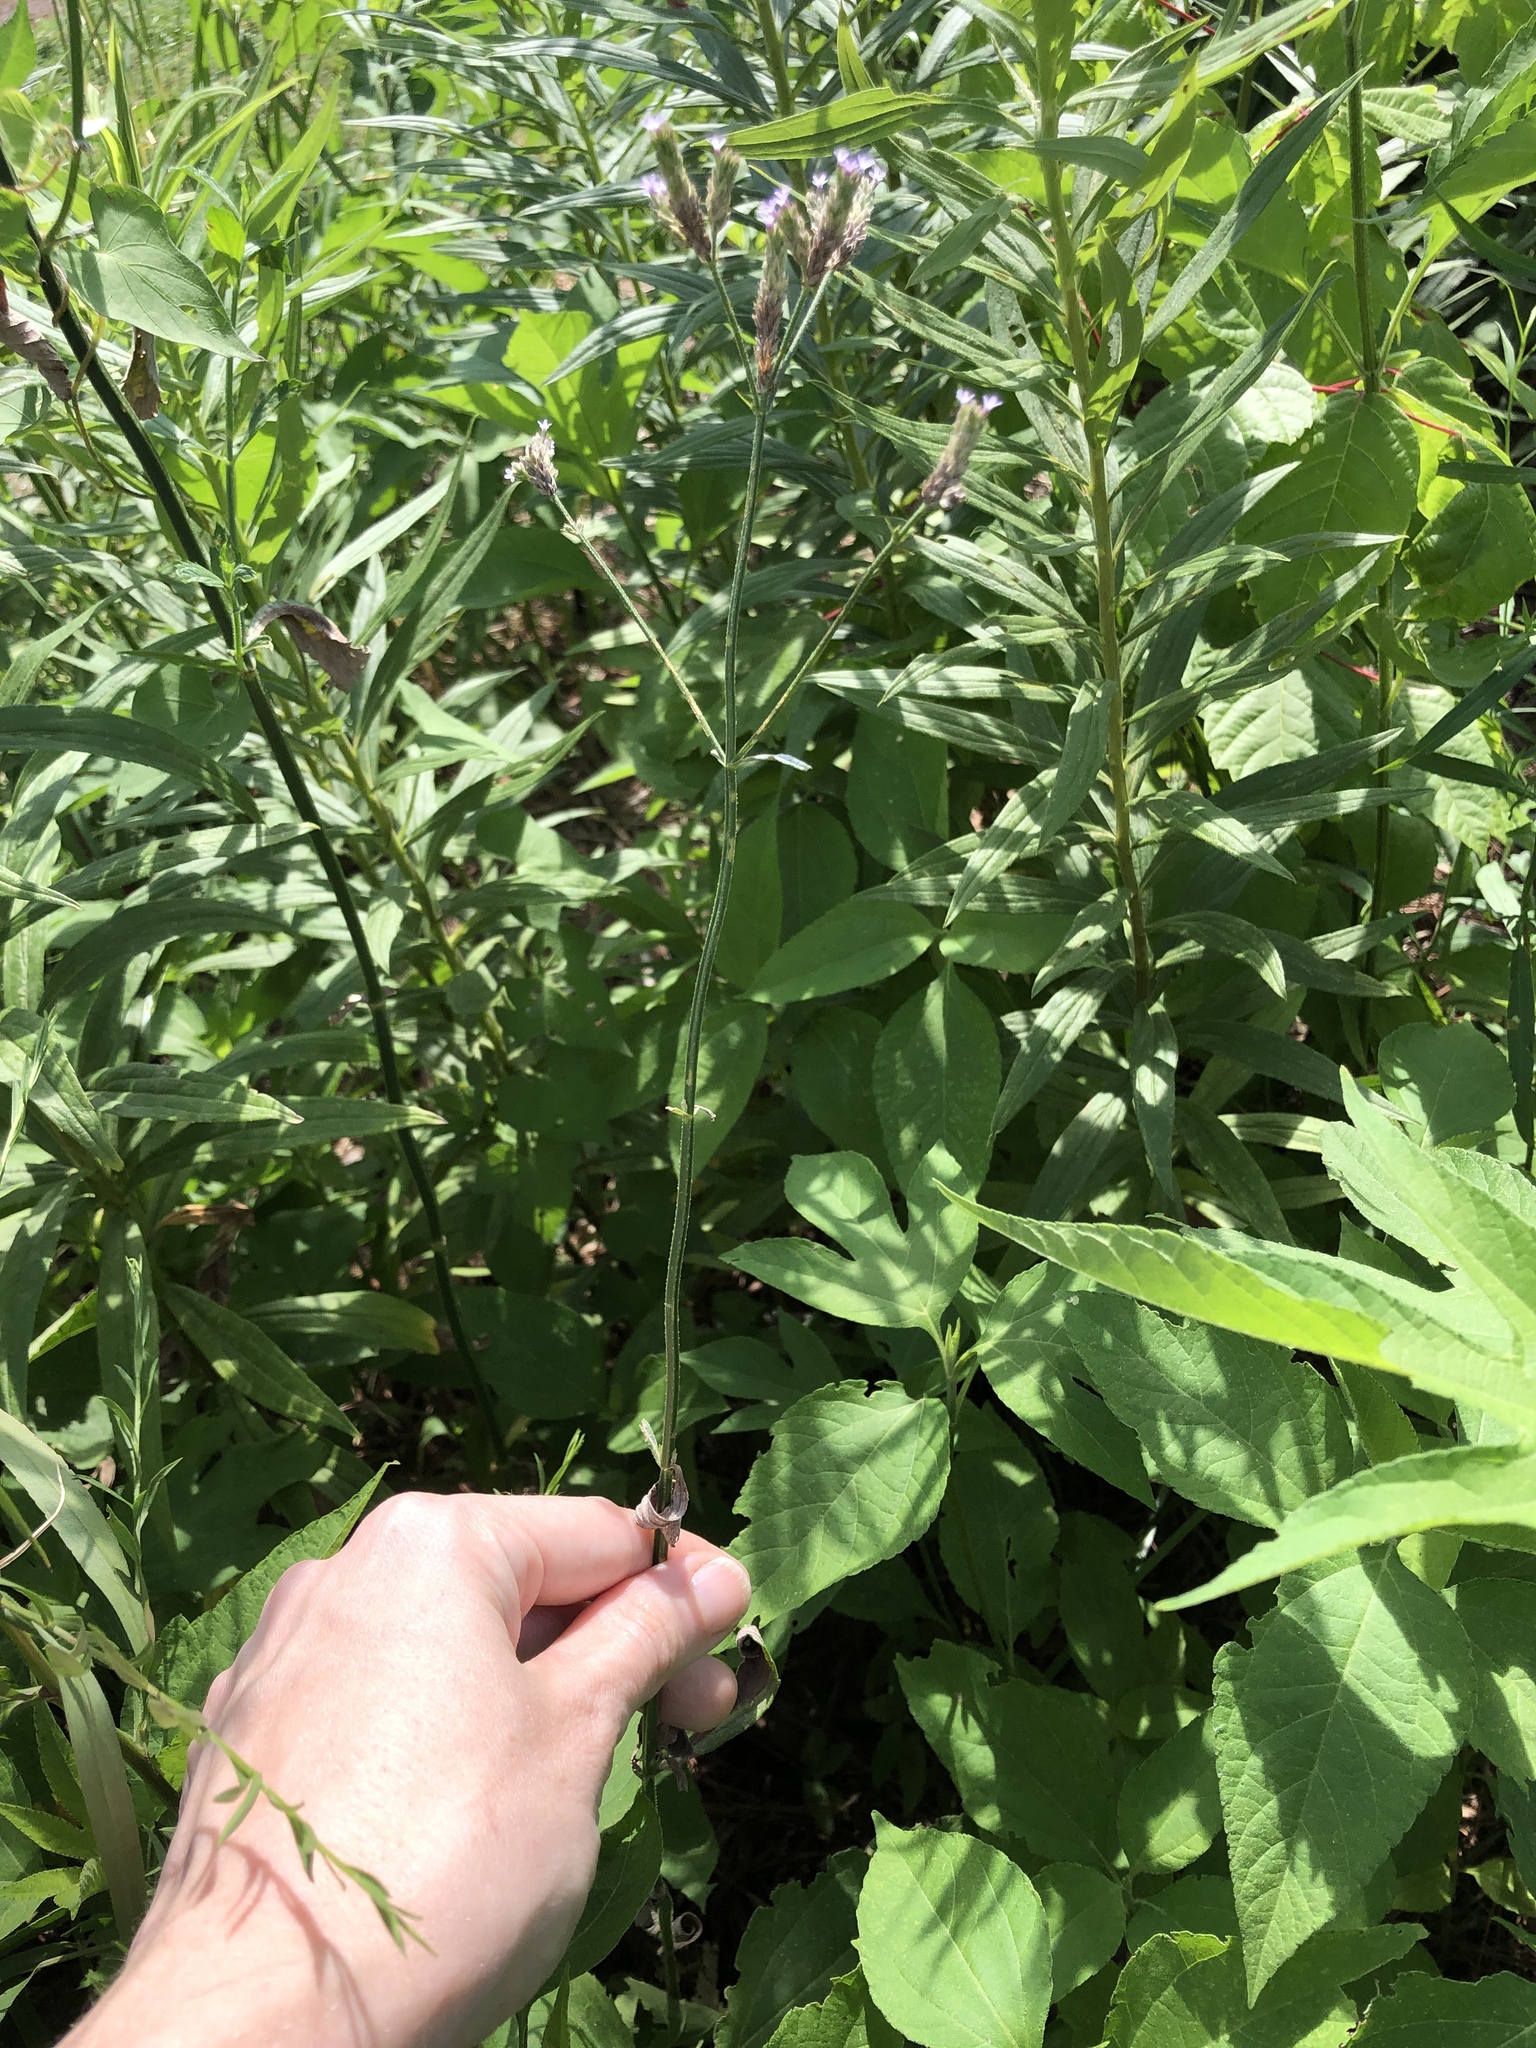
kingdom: Plantae
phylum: Tracheophyta
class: Magnoliopsida
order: Lamiales
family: Verbenaceae
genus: Verbena
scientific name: Verbena brasiliensis
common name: Brazilian vervain
